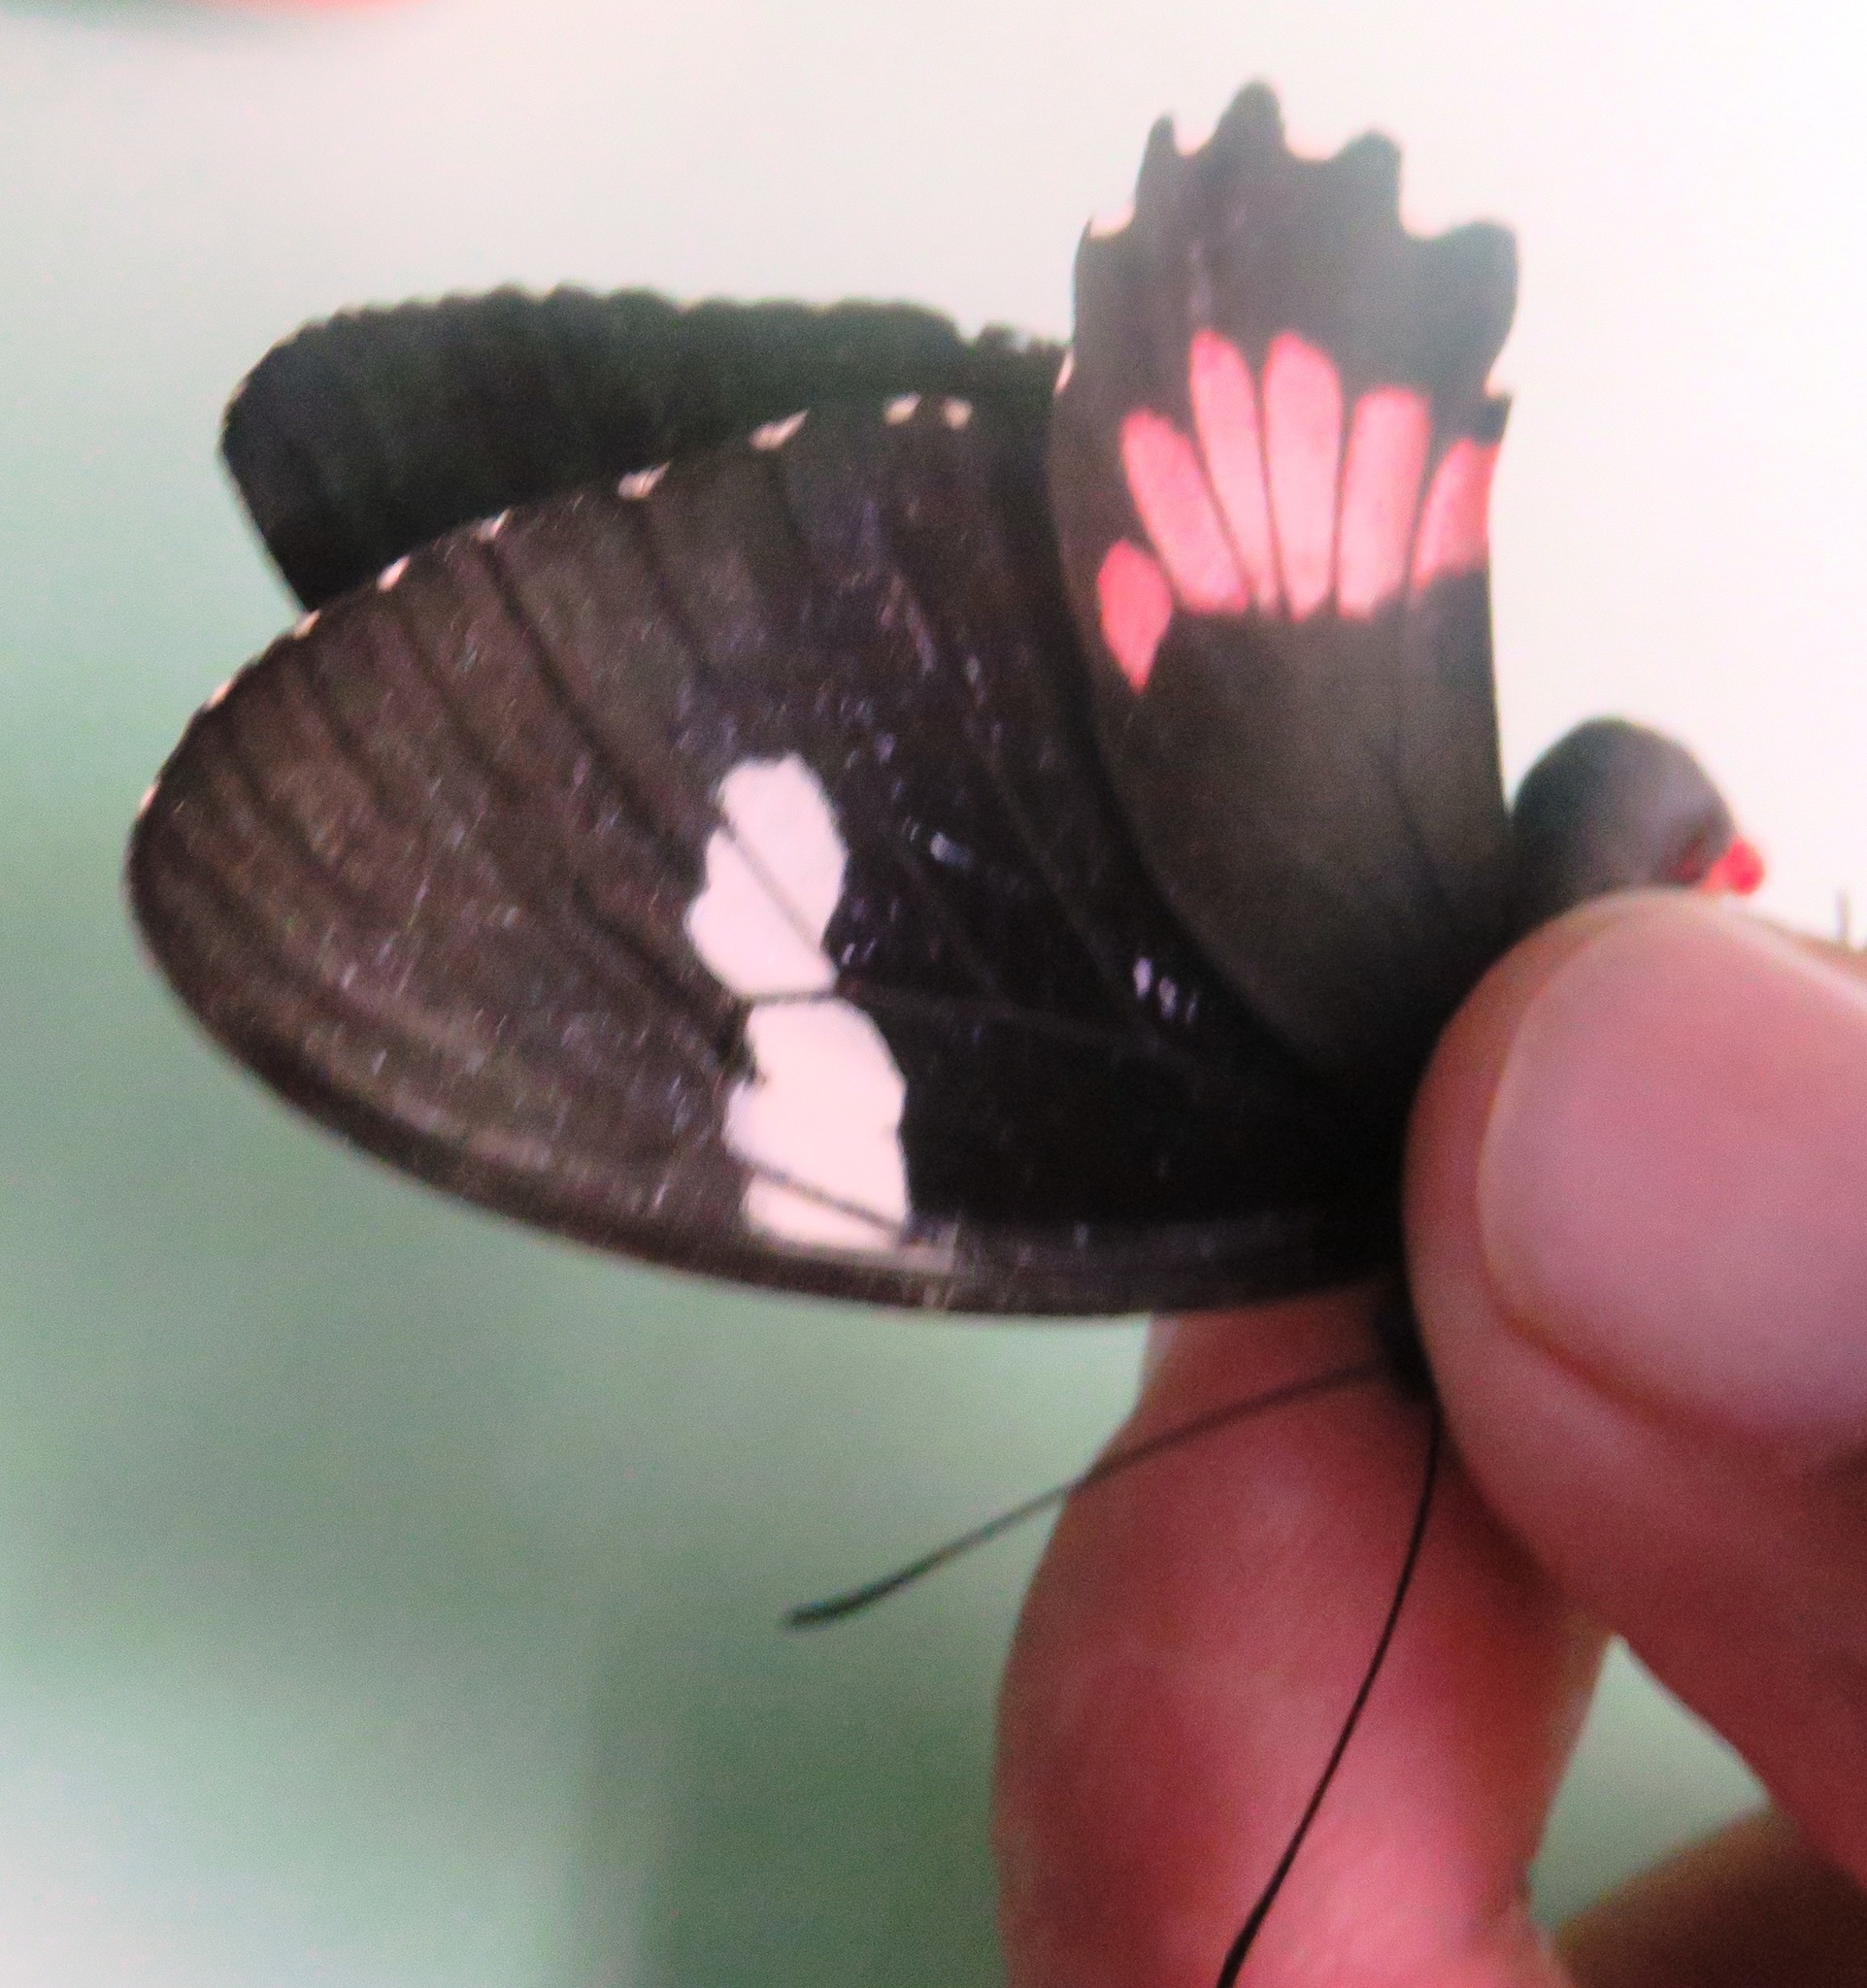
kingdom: Animalia
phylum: Arthropoda
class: Insecta
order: Lepidoptera
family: Papilionidae
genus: Parides
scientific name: Parides iphidamas
